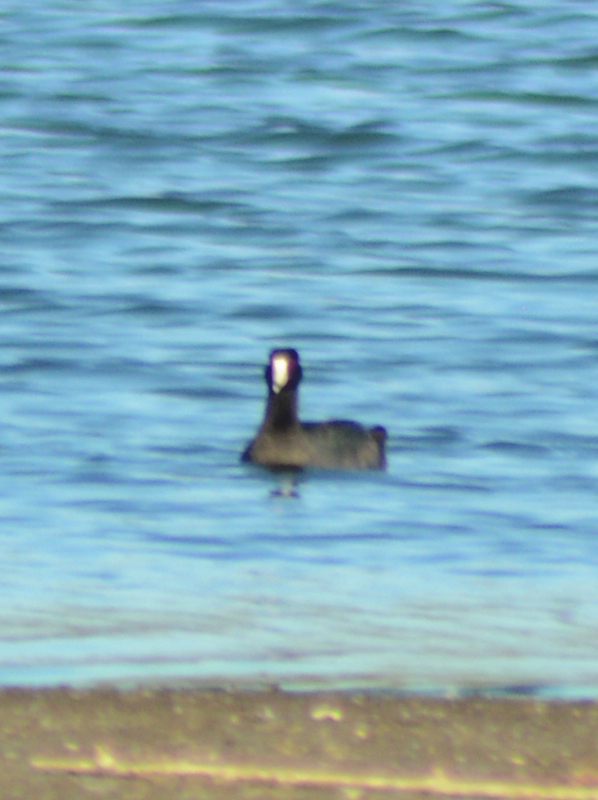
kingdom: Animalia
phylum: Chordata
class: Aves
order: Gruiformes
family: Rallidae
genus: Fulica
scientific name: Fulica americana
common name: American coot
